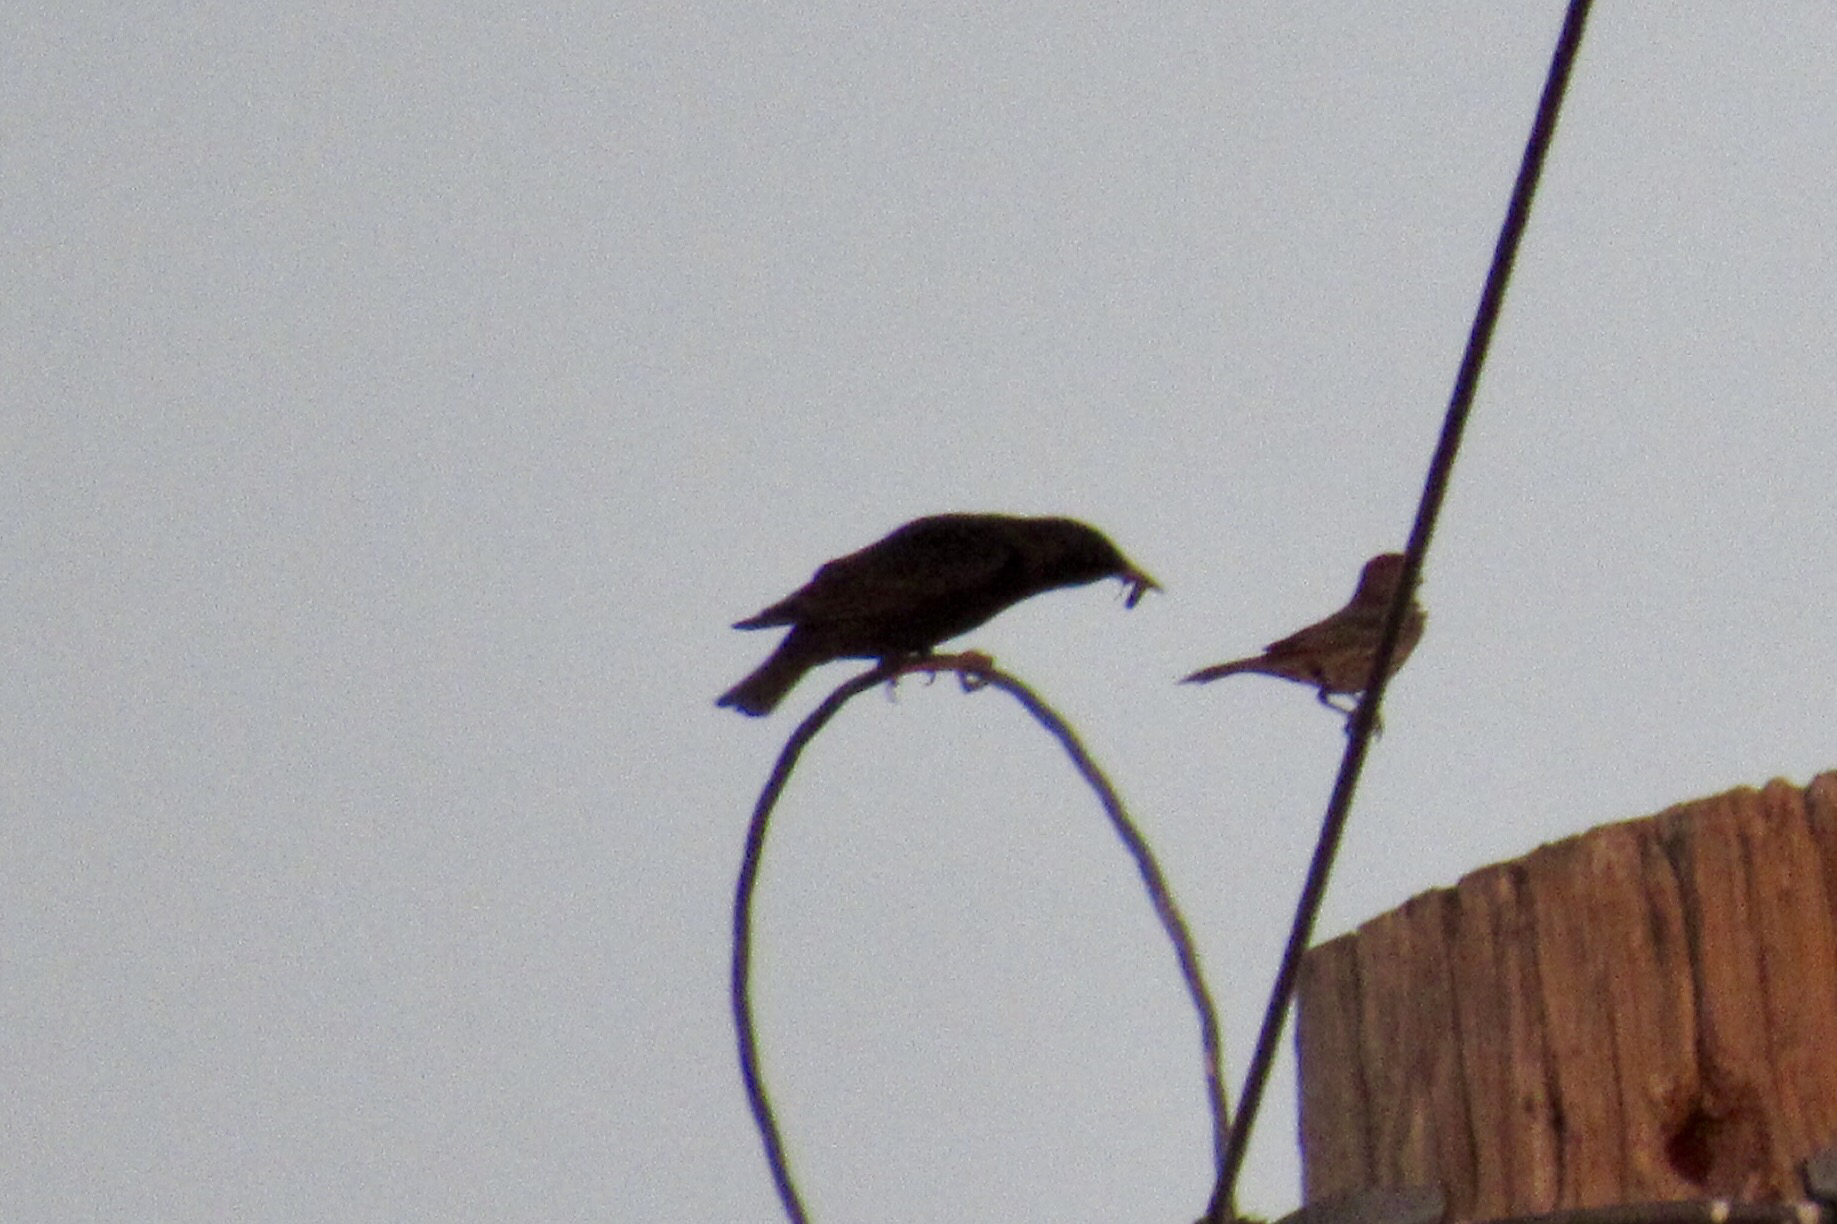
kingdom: Animalia
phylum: Chordata
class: Aves
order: Passeriformes
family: Sturnidae
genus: Sturnus
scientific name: Sturnus vulgaris
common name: Common starling
